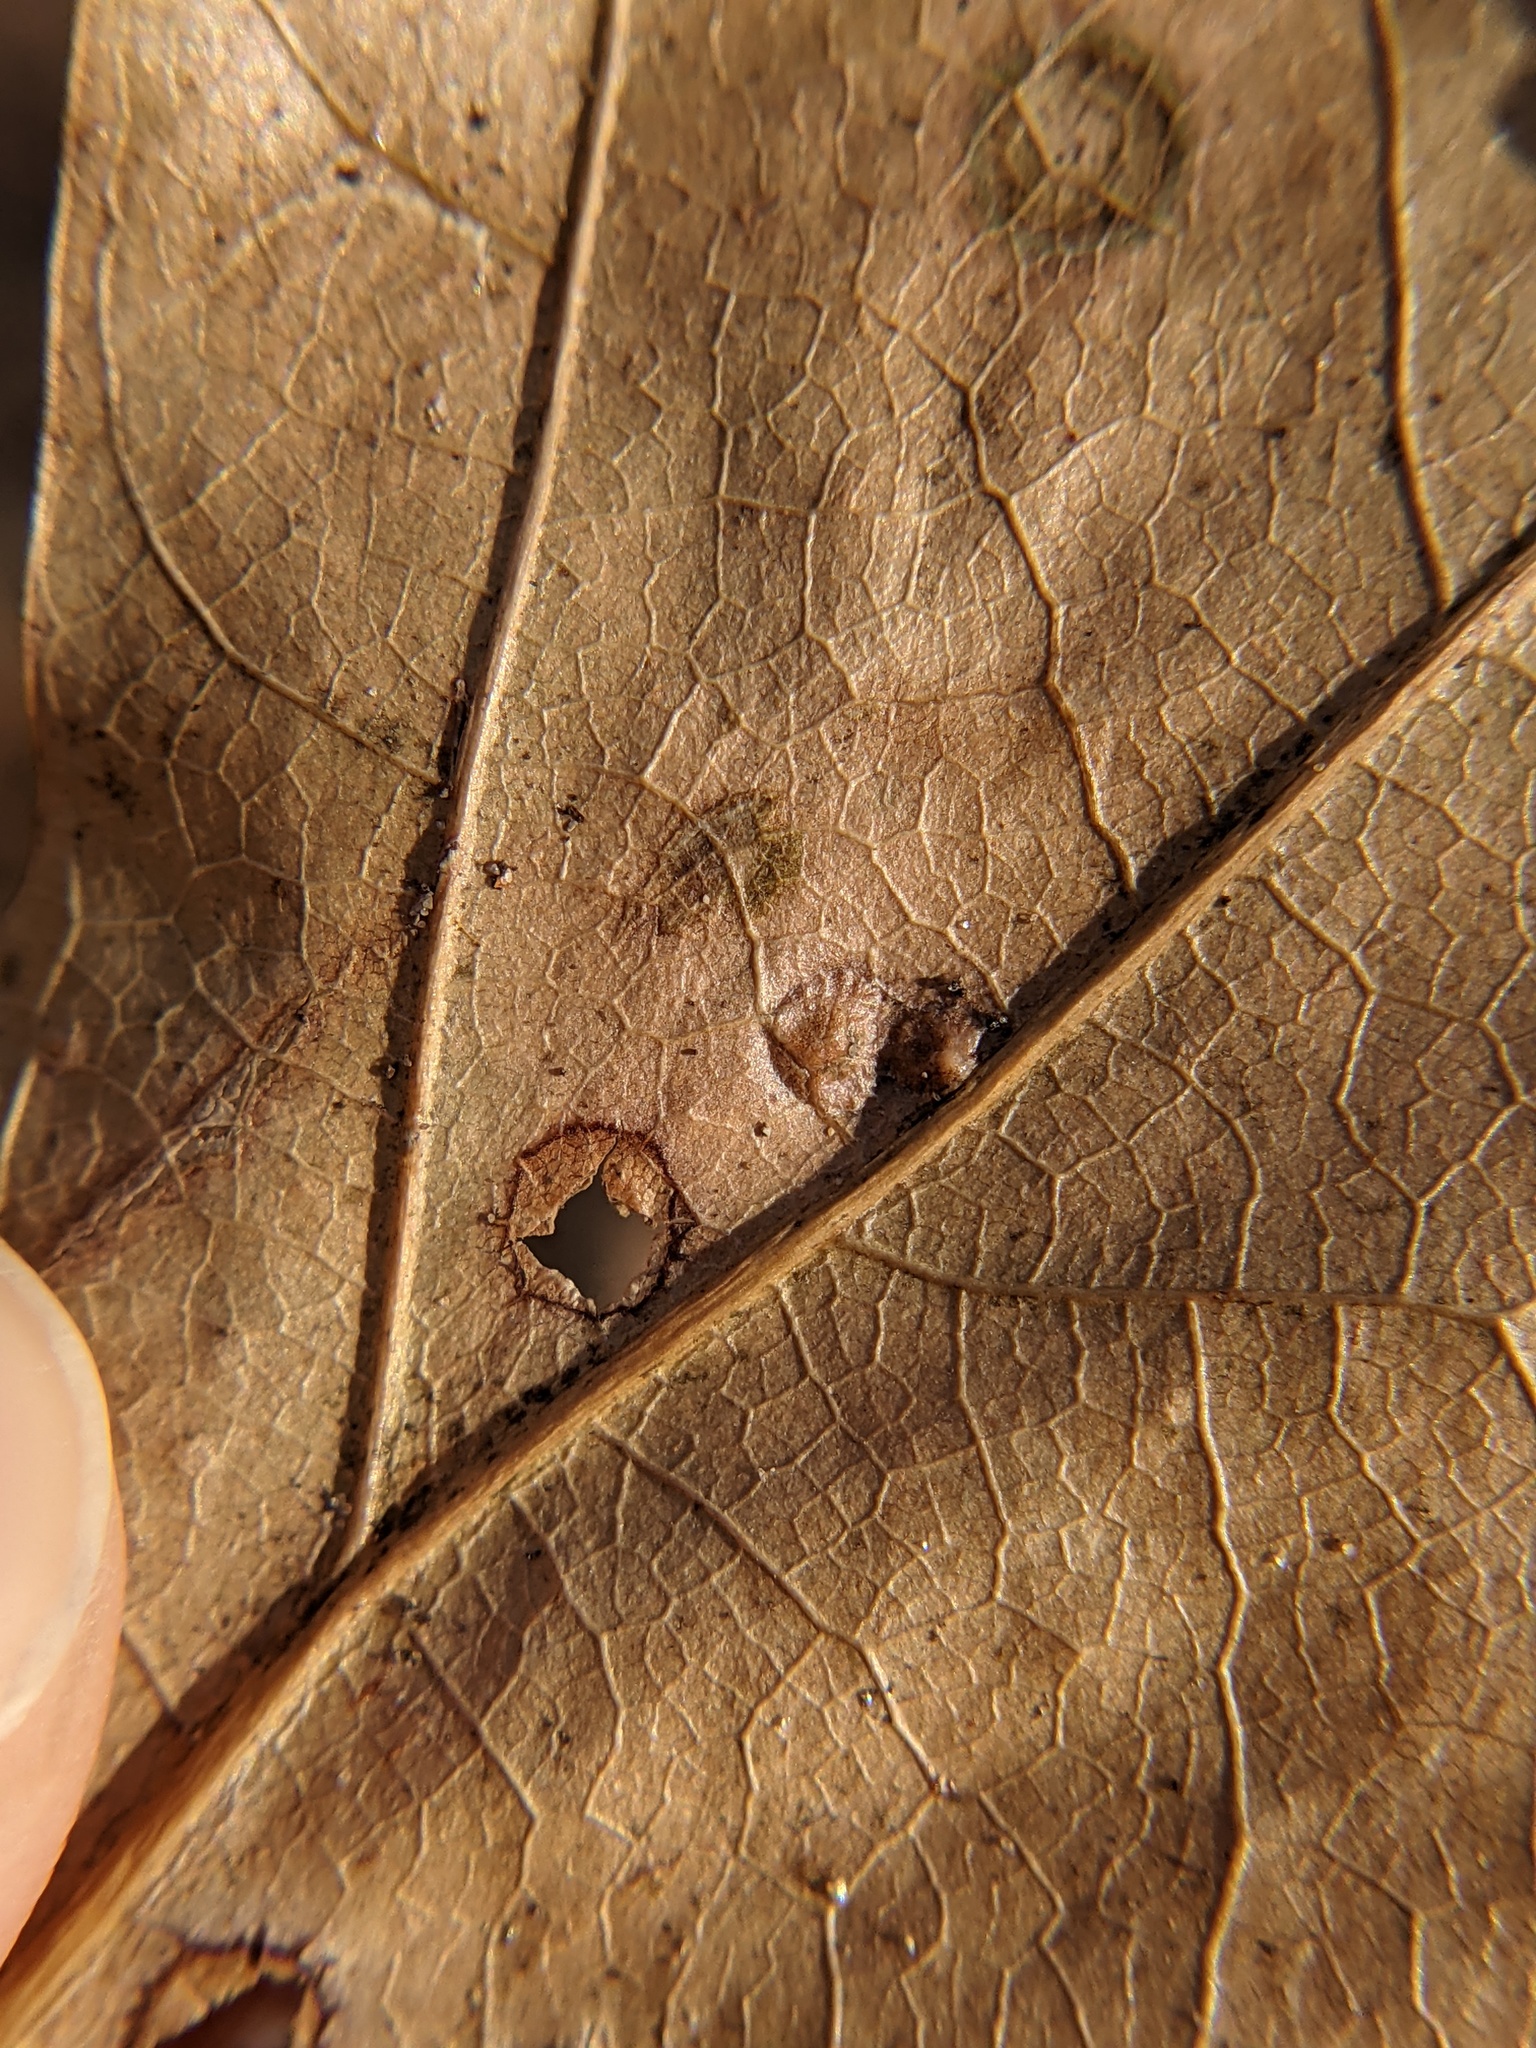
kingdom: Animalia
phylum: Arthropoda
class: Insecta
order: Diptera
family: Cecidomyiidae
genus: Polystepha
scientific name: Polystepha pilulae
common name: Oak leaf gall midge
